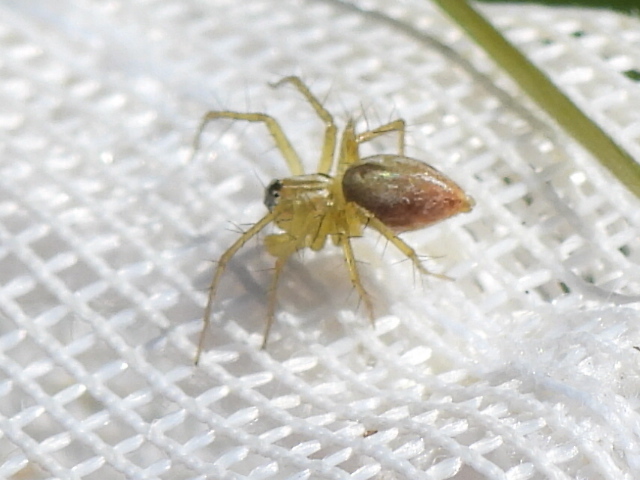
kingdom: Animalia
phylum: Arthropoda
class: Arachnida
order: Araneae
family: Oxyopidae
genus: Oxyopes
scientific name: Oxyopes salticus
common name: Lynx spiders
